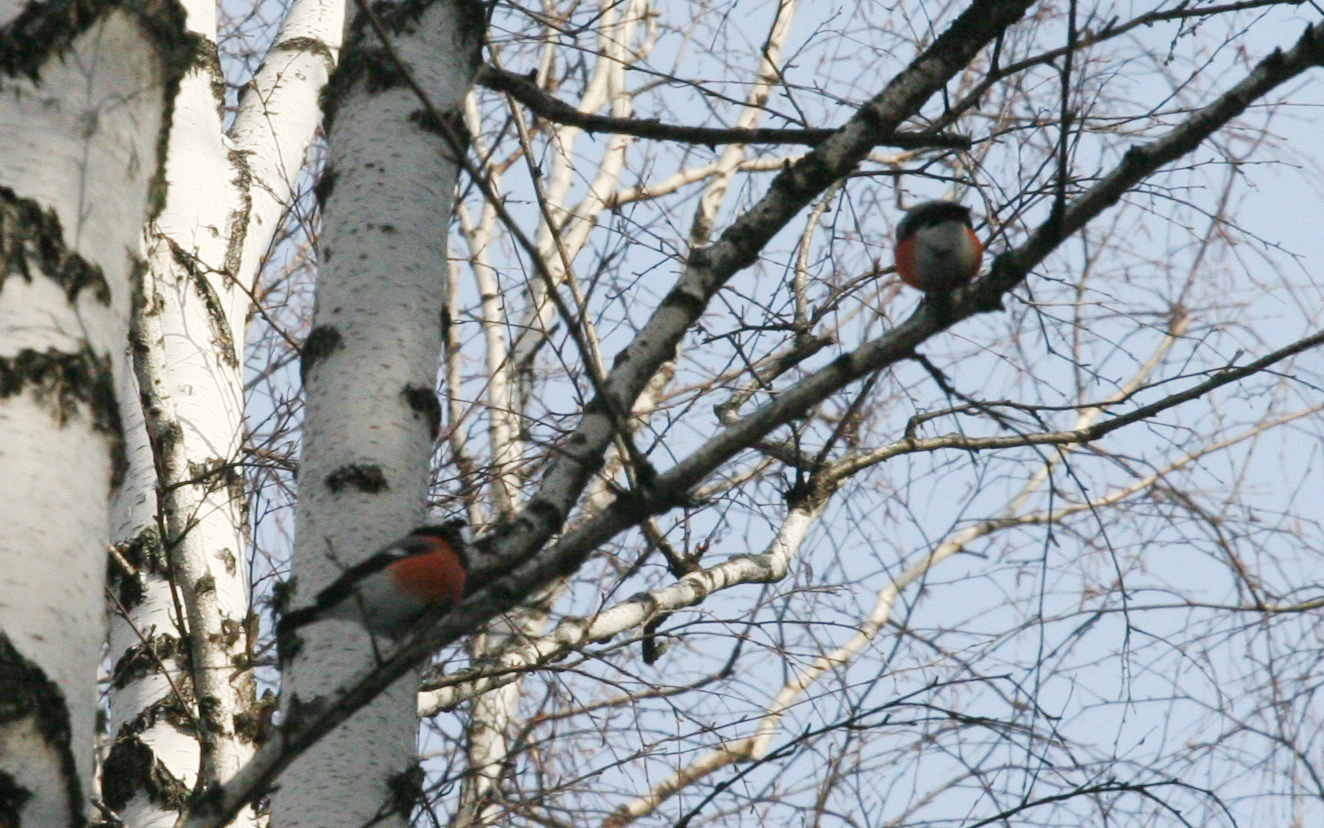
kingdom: Animalia
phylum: Chordata
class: Aves
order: Passeriformes
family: Fringillidae
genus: Pyrrhula
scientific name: Pyrrhula pyrrhula
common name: Eurasian bullfinch
